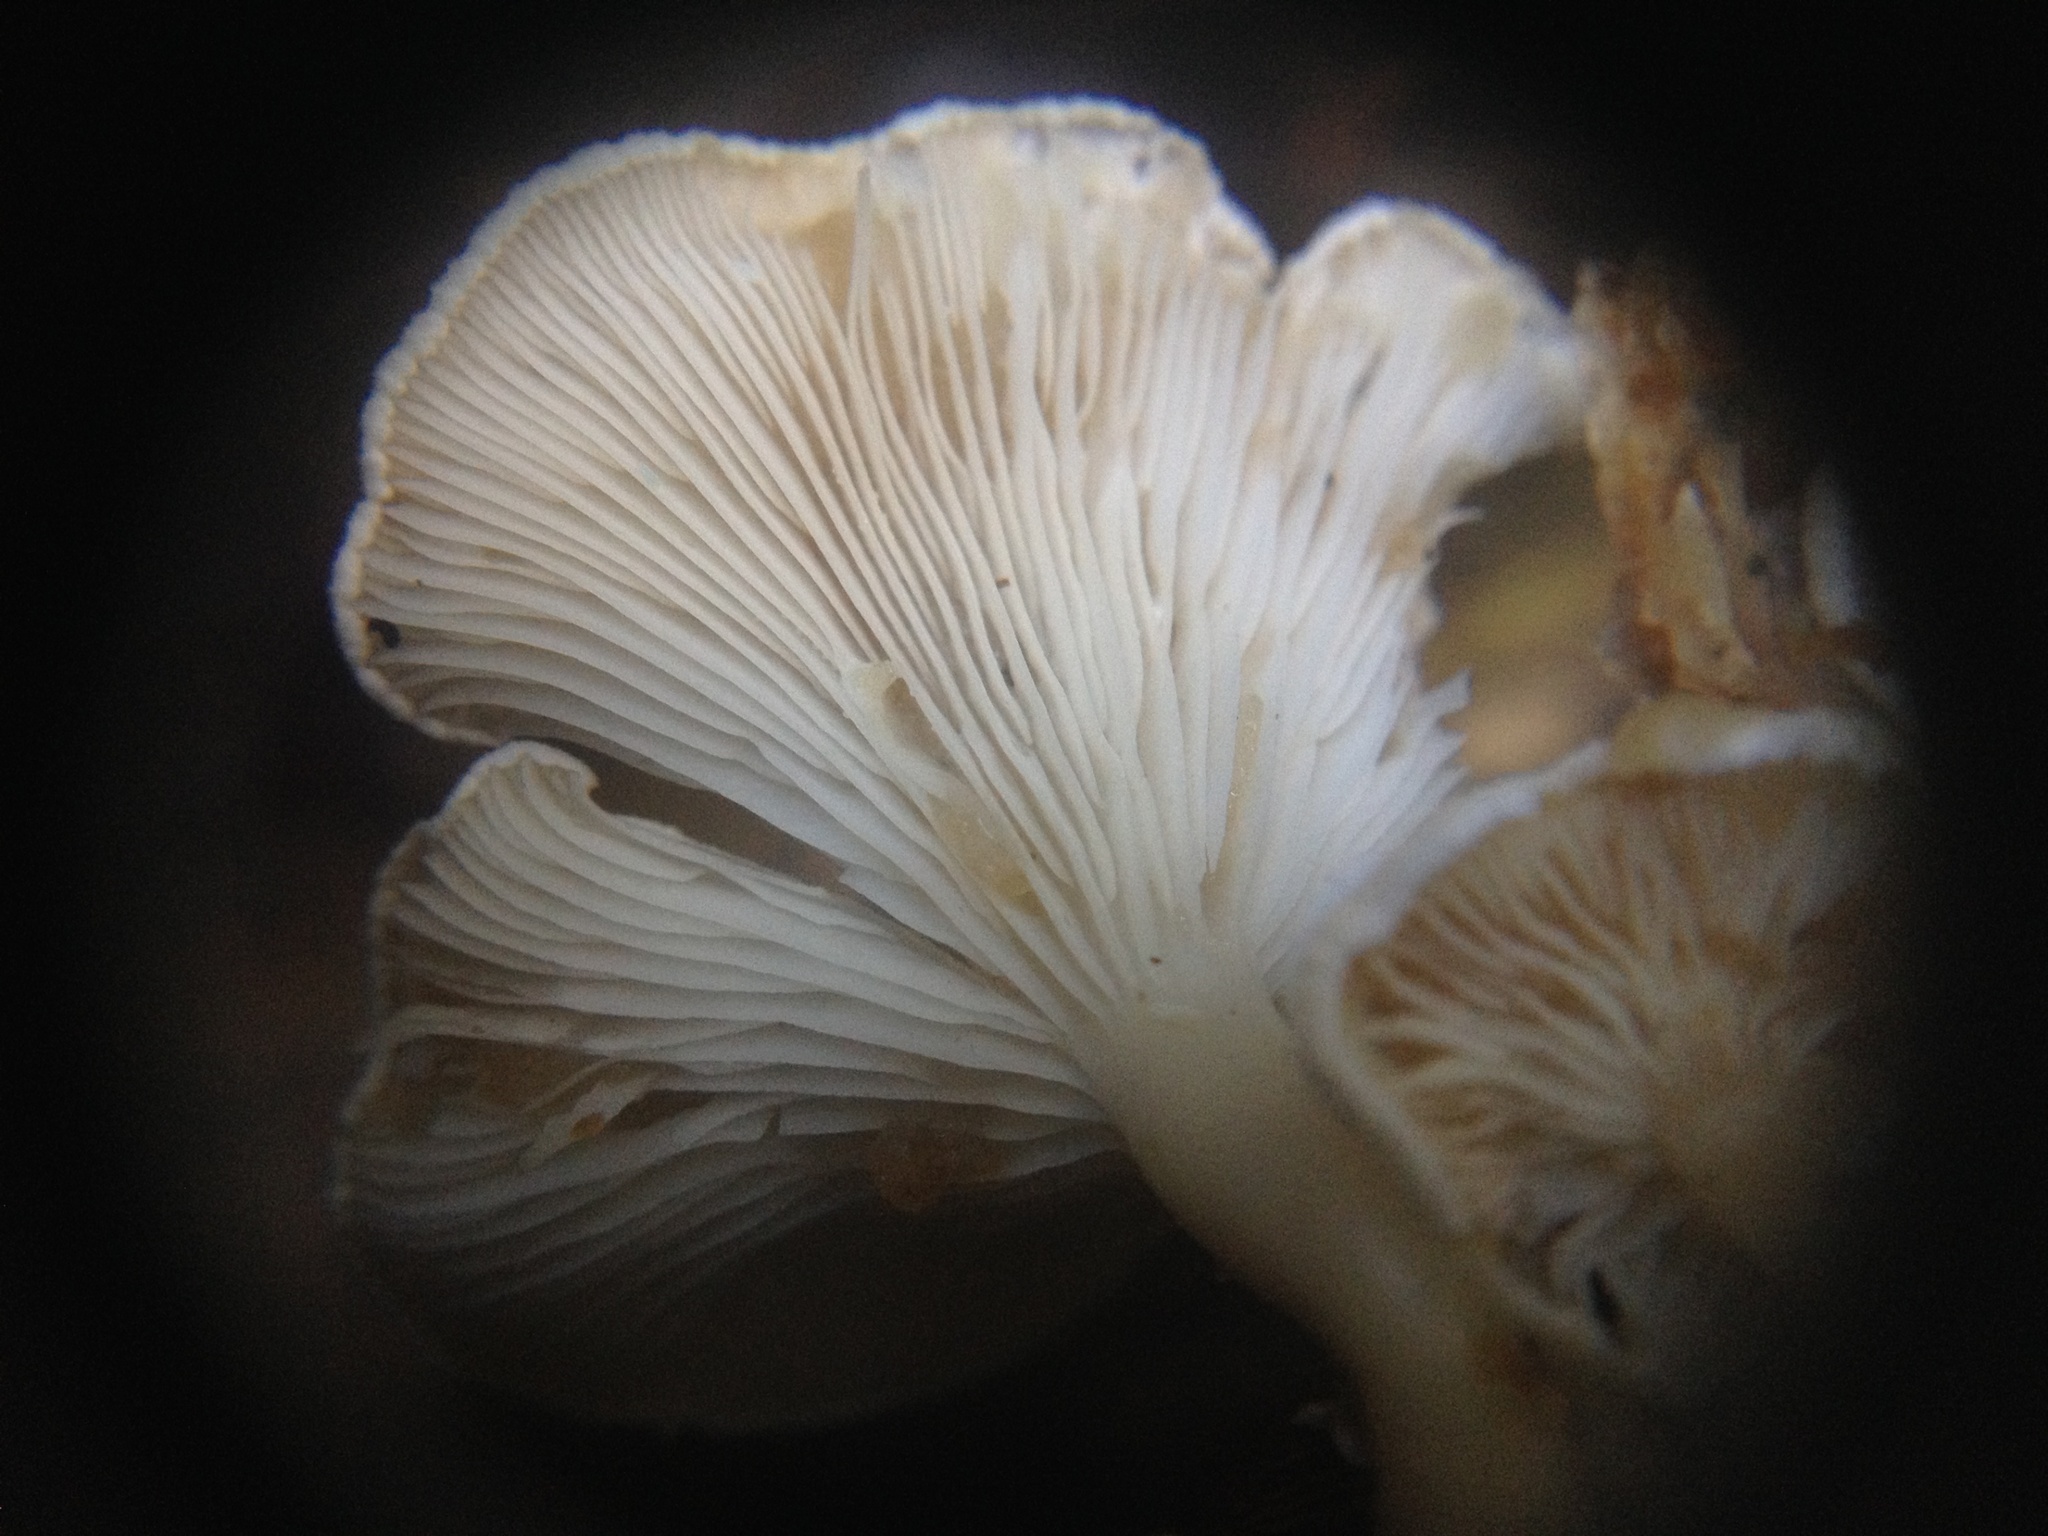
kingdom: Fungi
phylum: Basidiomycota
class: Agaricomycetes
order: Agaricales
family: Callistosporiaceae
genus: Pleurocollybia
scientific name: Pleurocollybia cremea
